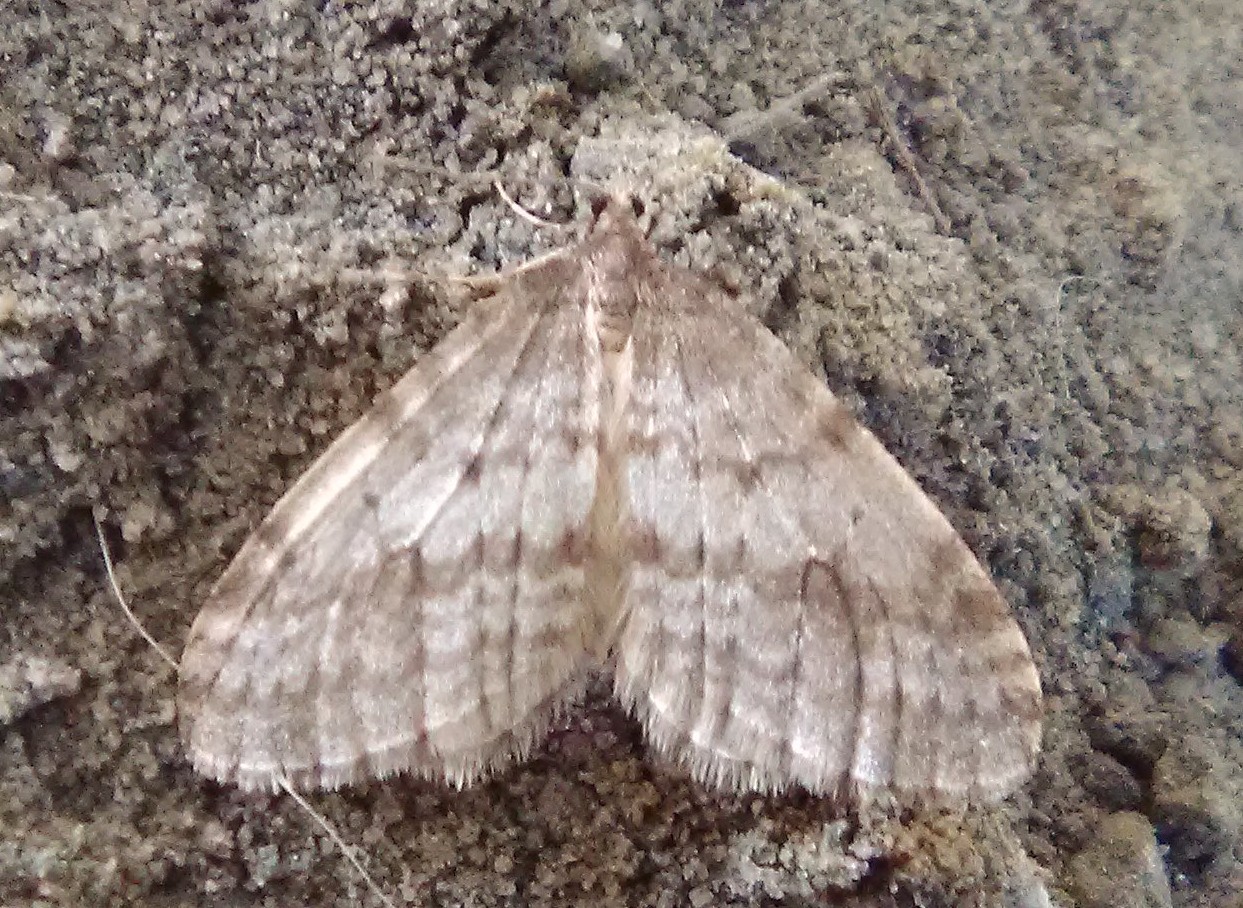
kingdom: Animalia
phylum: Arthropoda
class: Insecta
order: Lepidoptera
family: Geometridae
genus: Operophtera
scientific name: Operophtera bruceata
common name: Bruce spanworm
